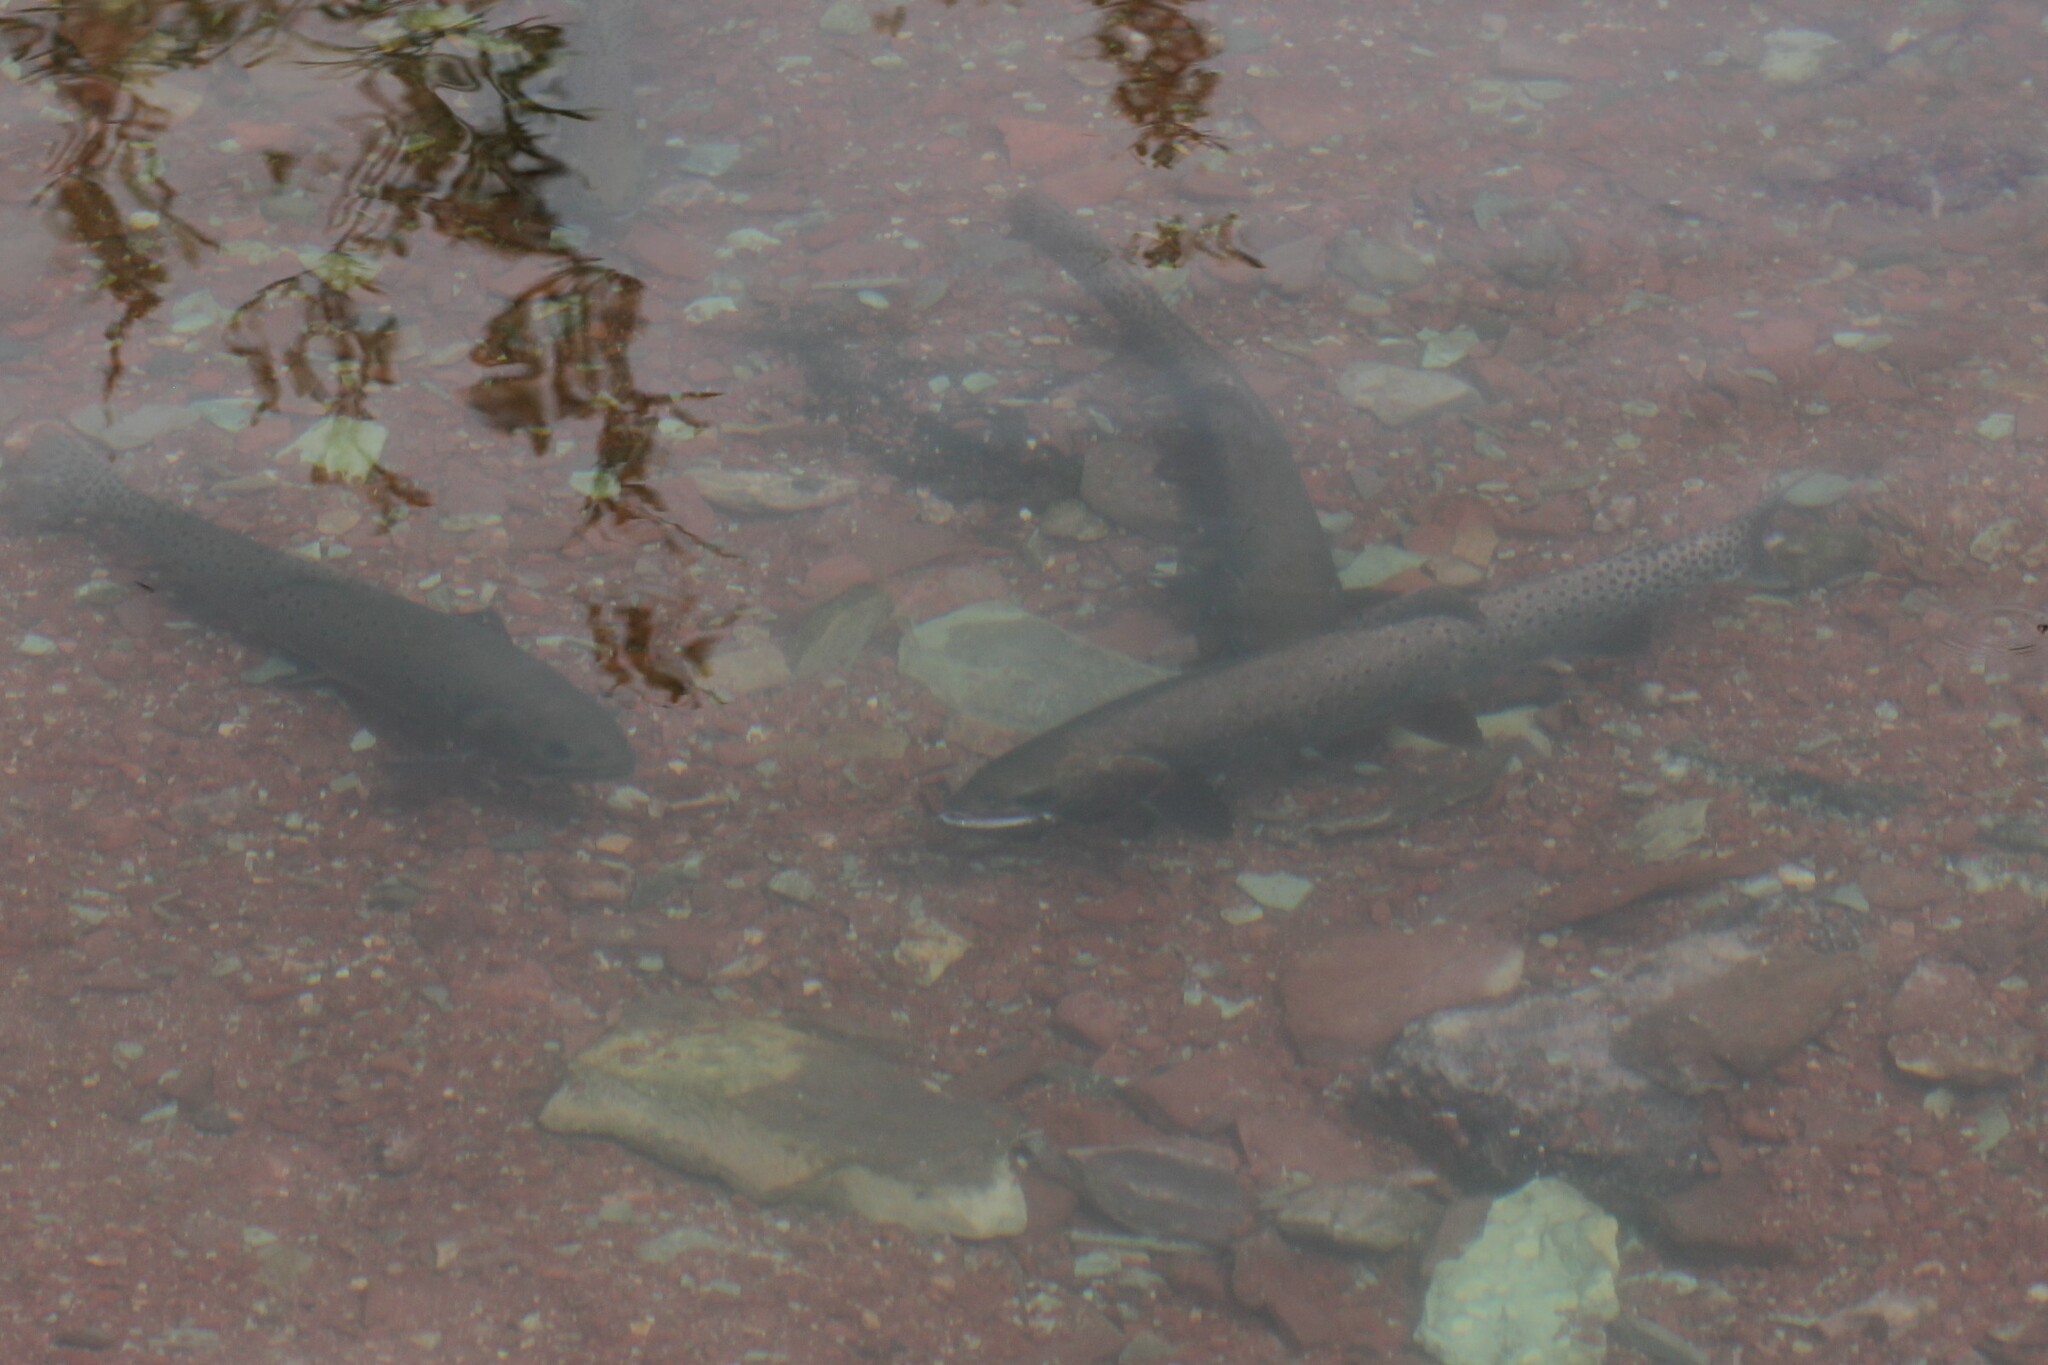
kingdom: Animalia
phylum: Chordata
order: Salmoniformes
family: Salmonidae
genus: Oncorhynchus
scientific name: Oncorhynchus
